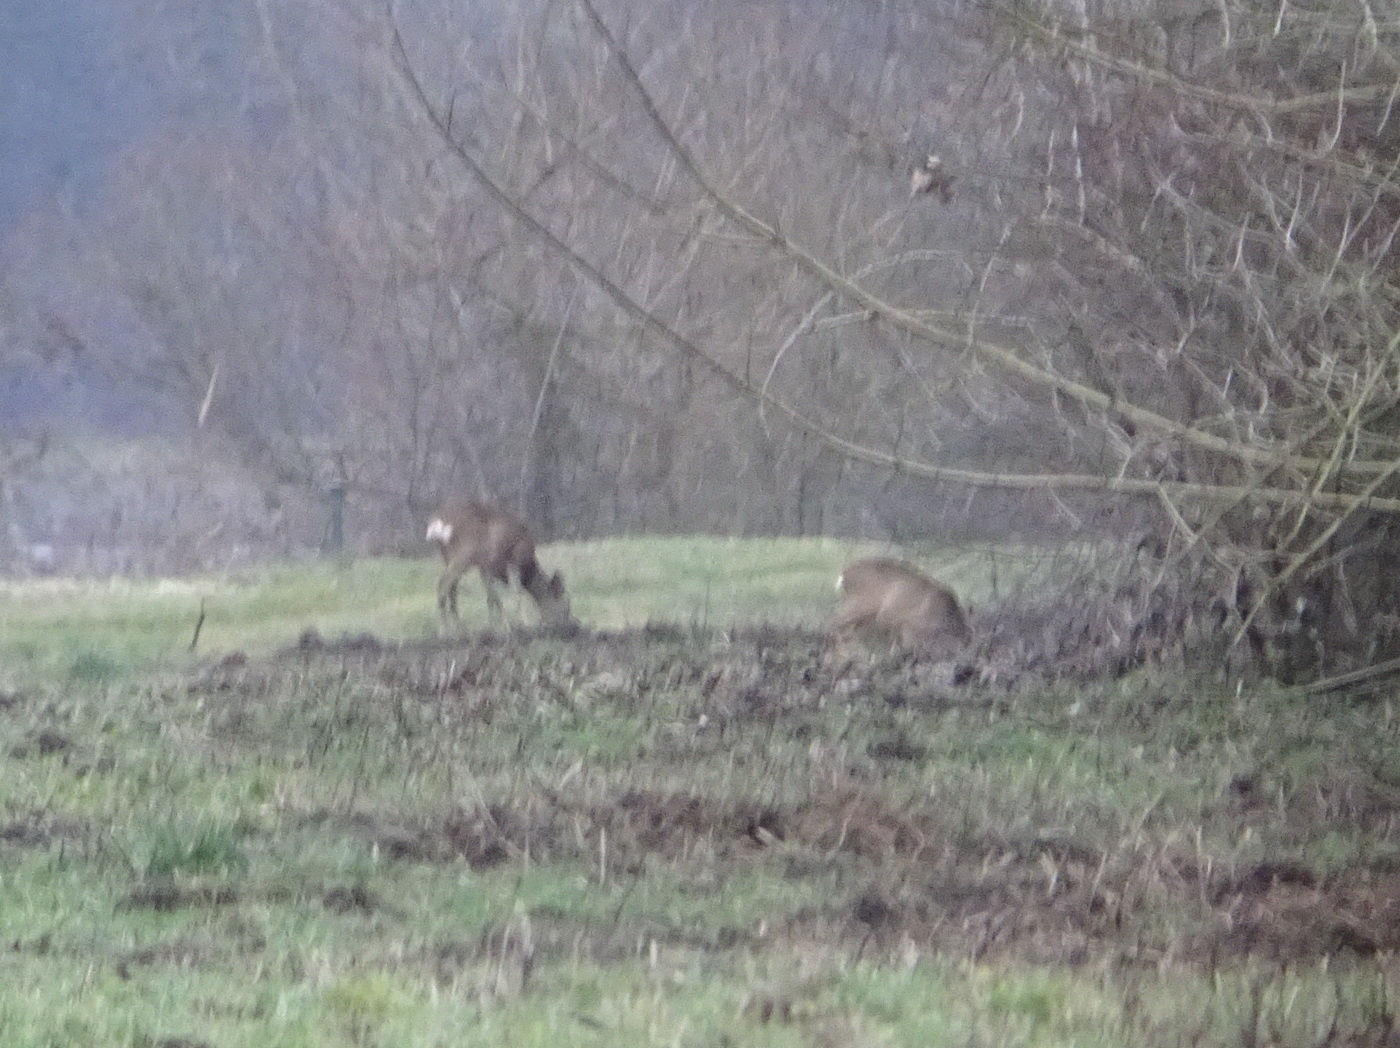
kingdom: Animalia
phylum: Chordata
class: Mammalia
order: Artiodactyla
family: Cervidae
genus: Capreolus
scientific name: Capreolus capreolus
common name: Western roe deer
